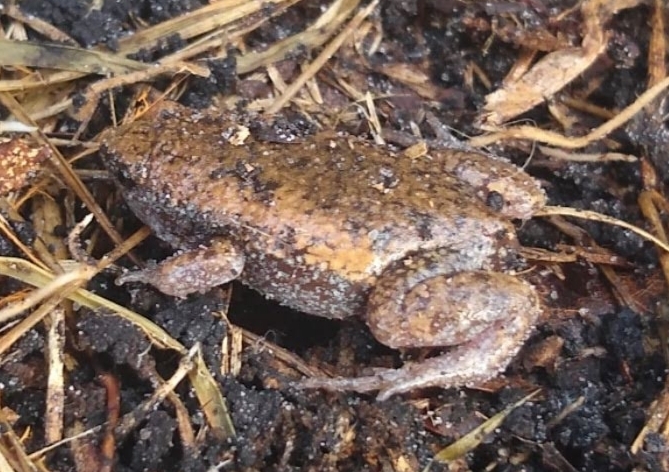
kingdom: Animalia
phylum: Chordata
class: Amphibia
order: Anura
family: Microhylidae
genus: Gastrophryne
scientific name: Gastrophryne carolinensis
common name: Eastern narrowmouth toad
